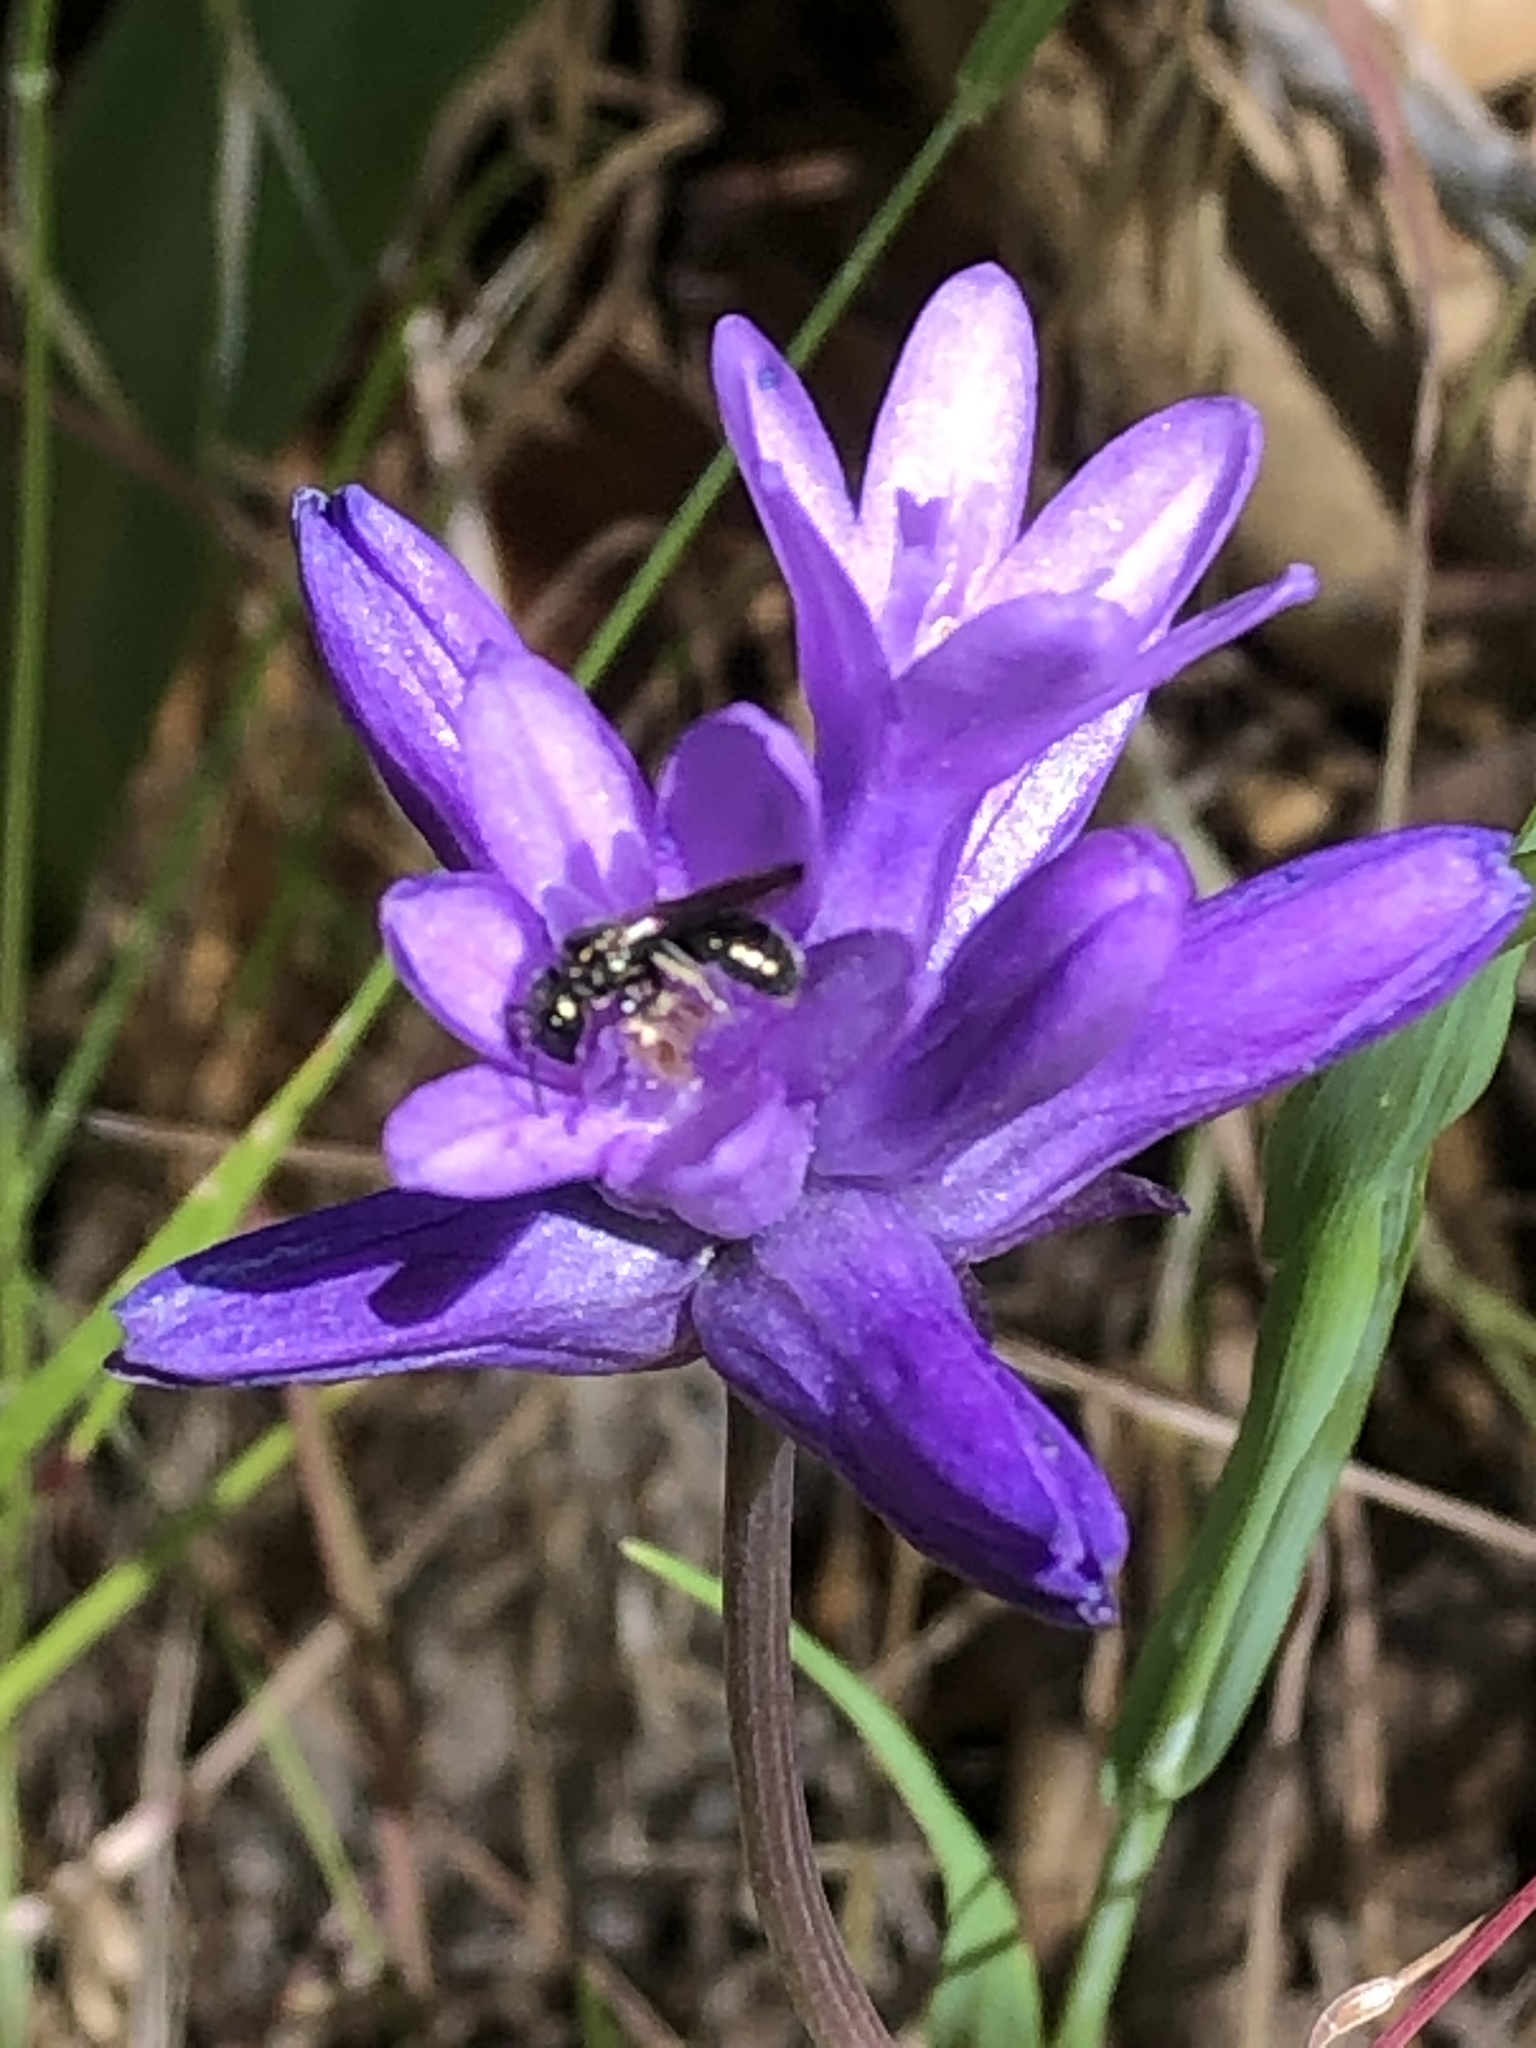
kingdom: Plantae
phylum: Tracheophyta
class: Liliopsida
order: Asparagales
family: Asparagaceae
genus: Dichelostemma
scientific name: Dichelostemma congestum
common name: Fork-tooth ookow
